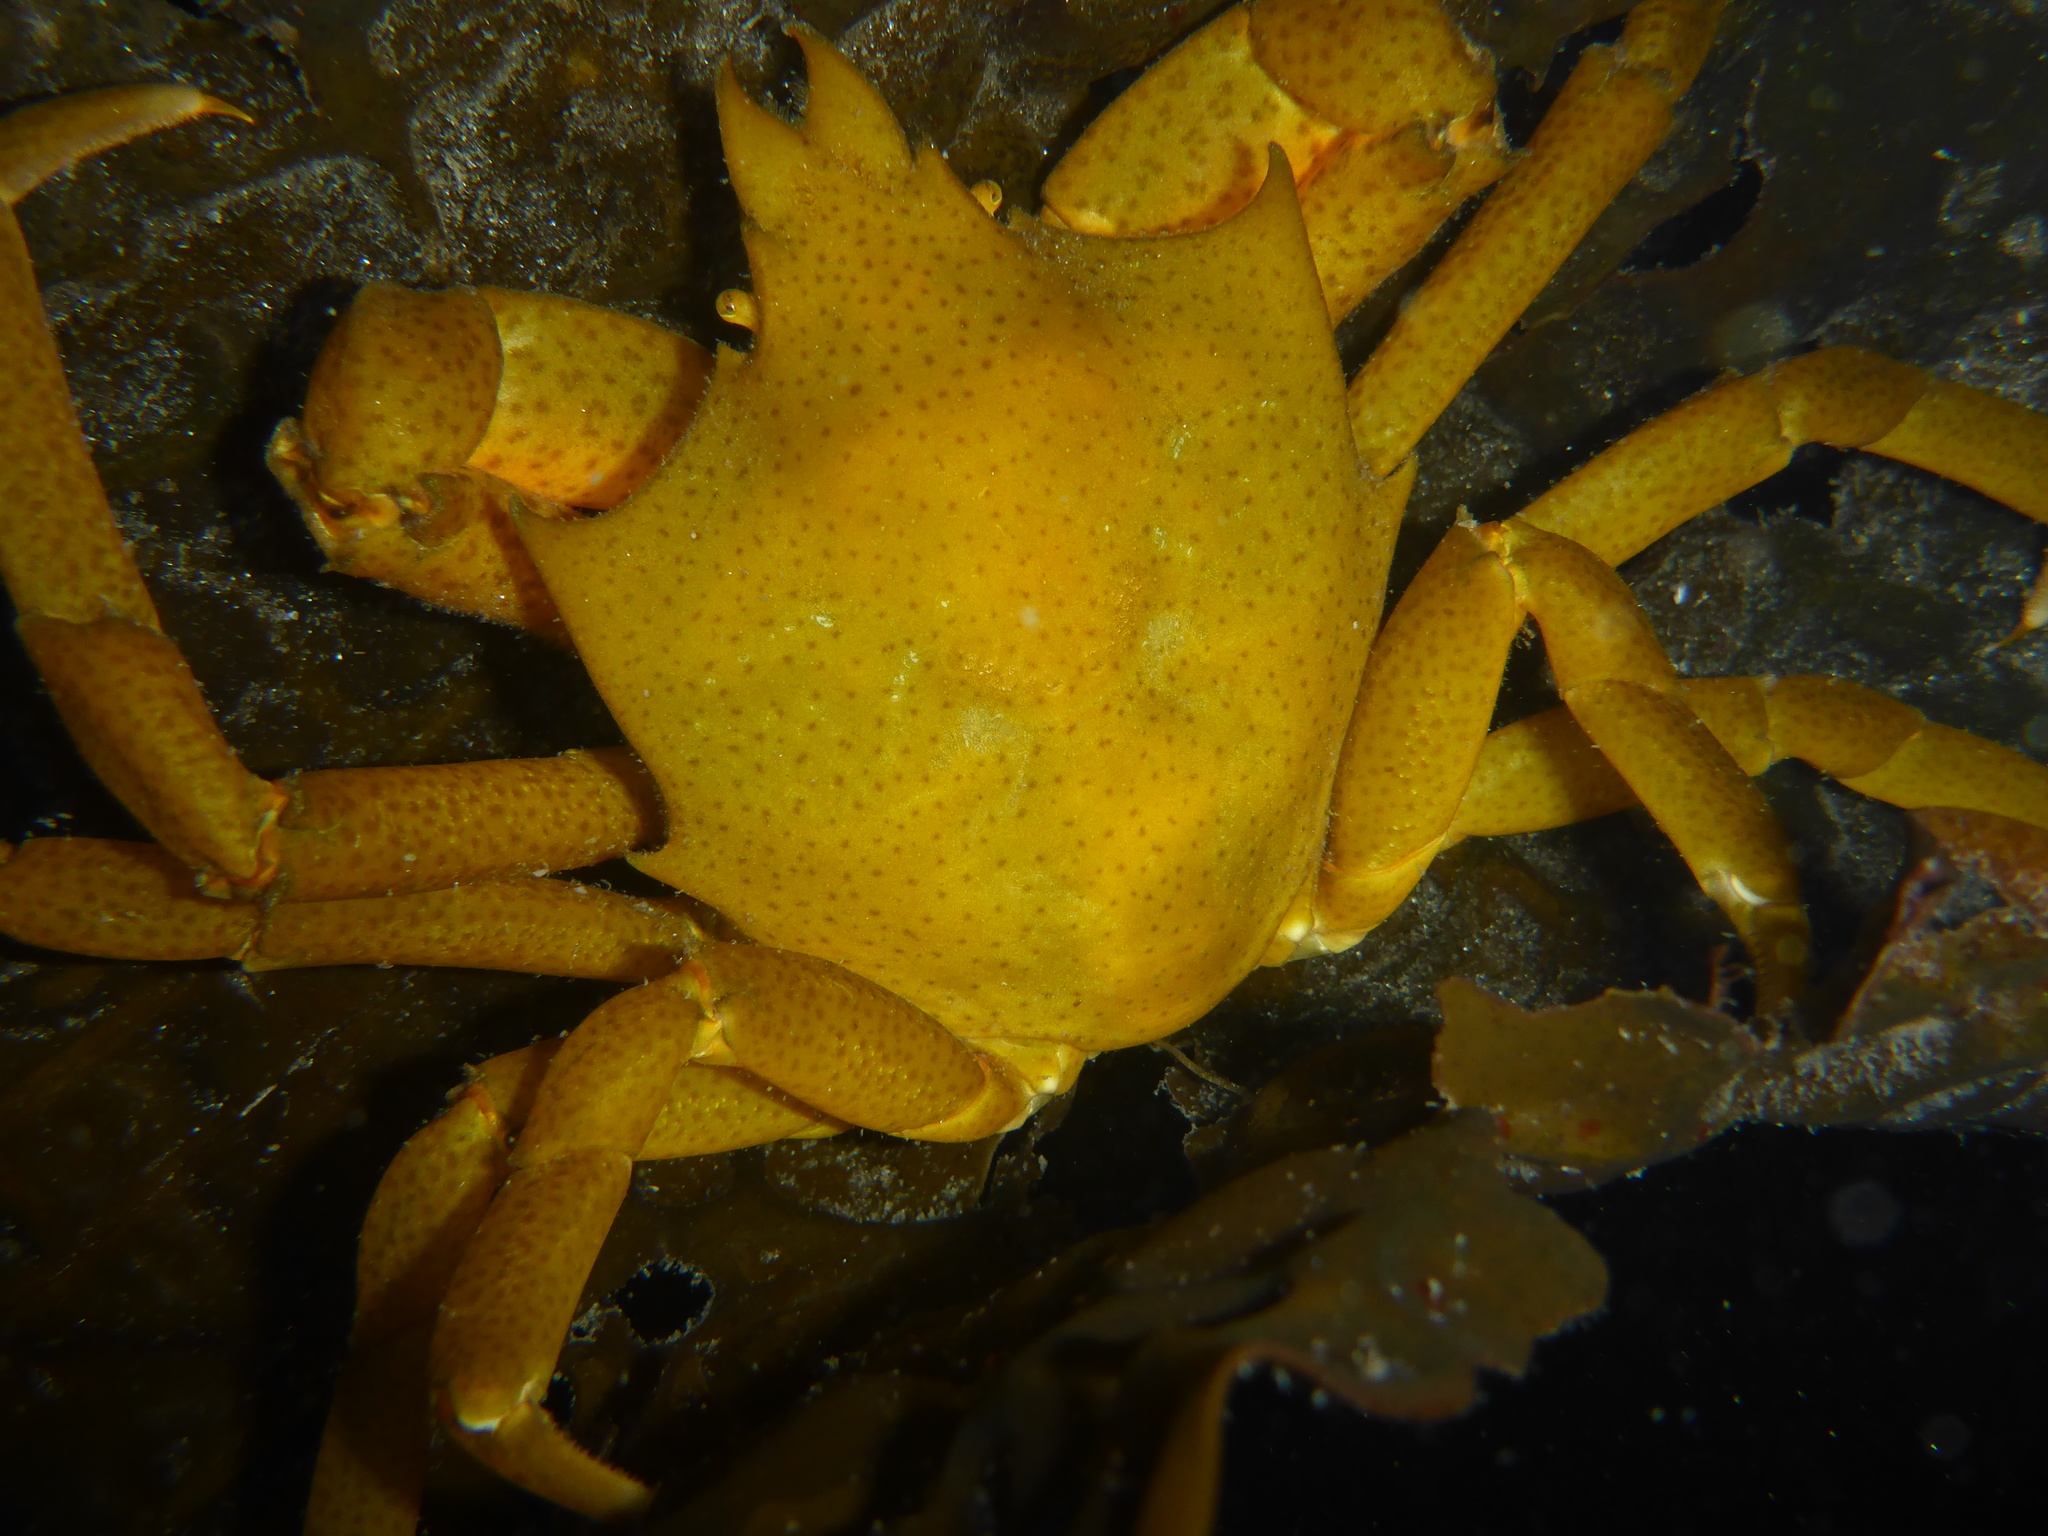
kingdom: Animalia
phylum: Arthropoda
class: Malacostraca
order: Decapoda
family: Epialtidae
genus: Pugettia
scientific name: Pugettia producta
